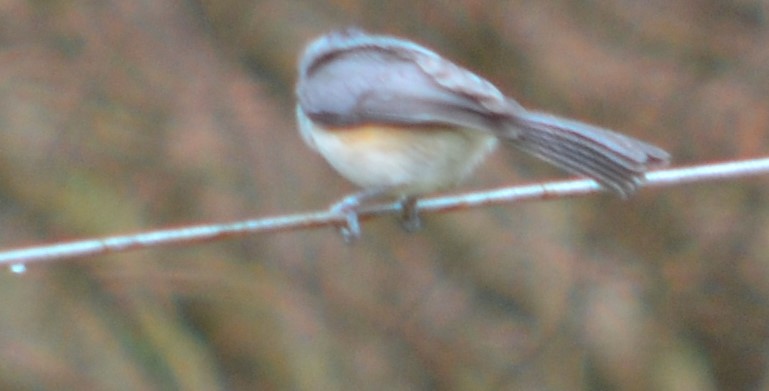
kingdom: Animalia
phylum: Chordata
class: Aves
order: Passeriformes
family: Paridae
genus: Baeolophus
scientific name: Baeolophus bicolor
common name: Tufted titmouse
